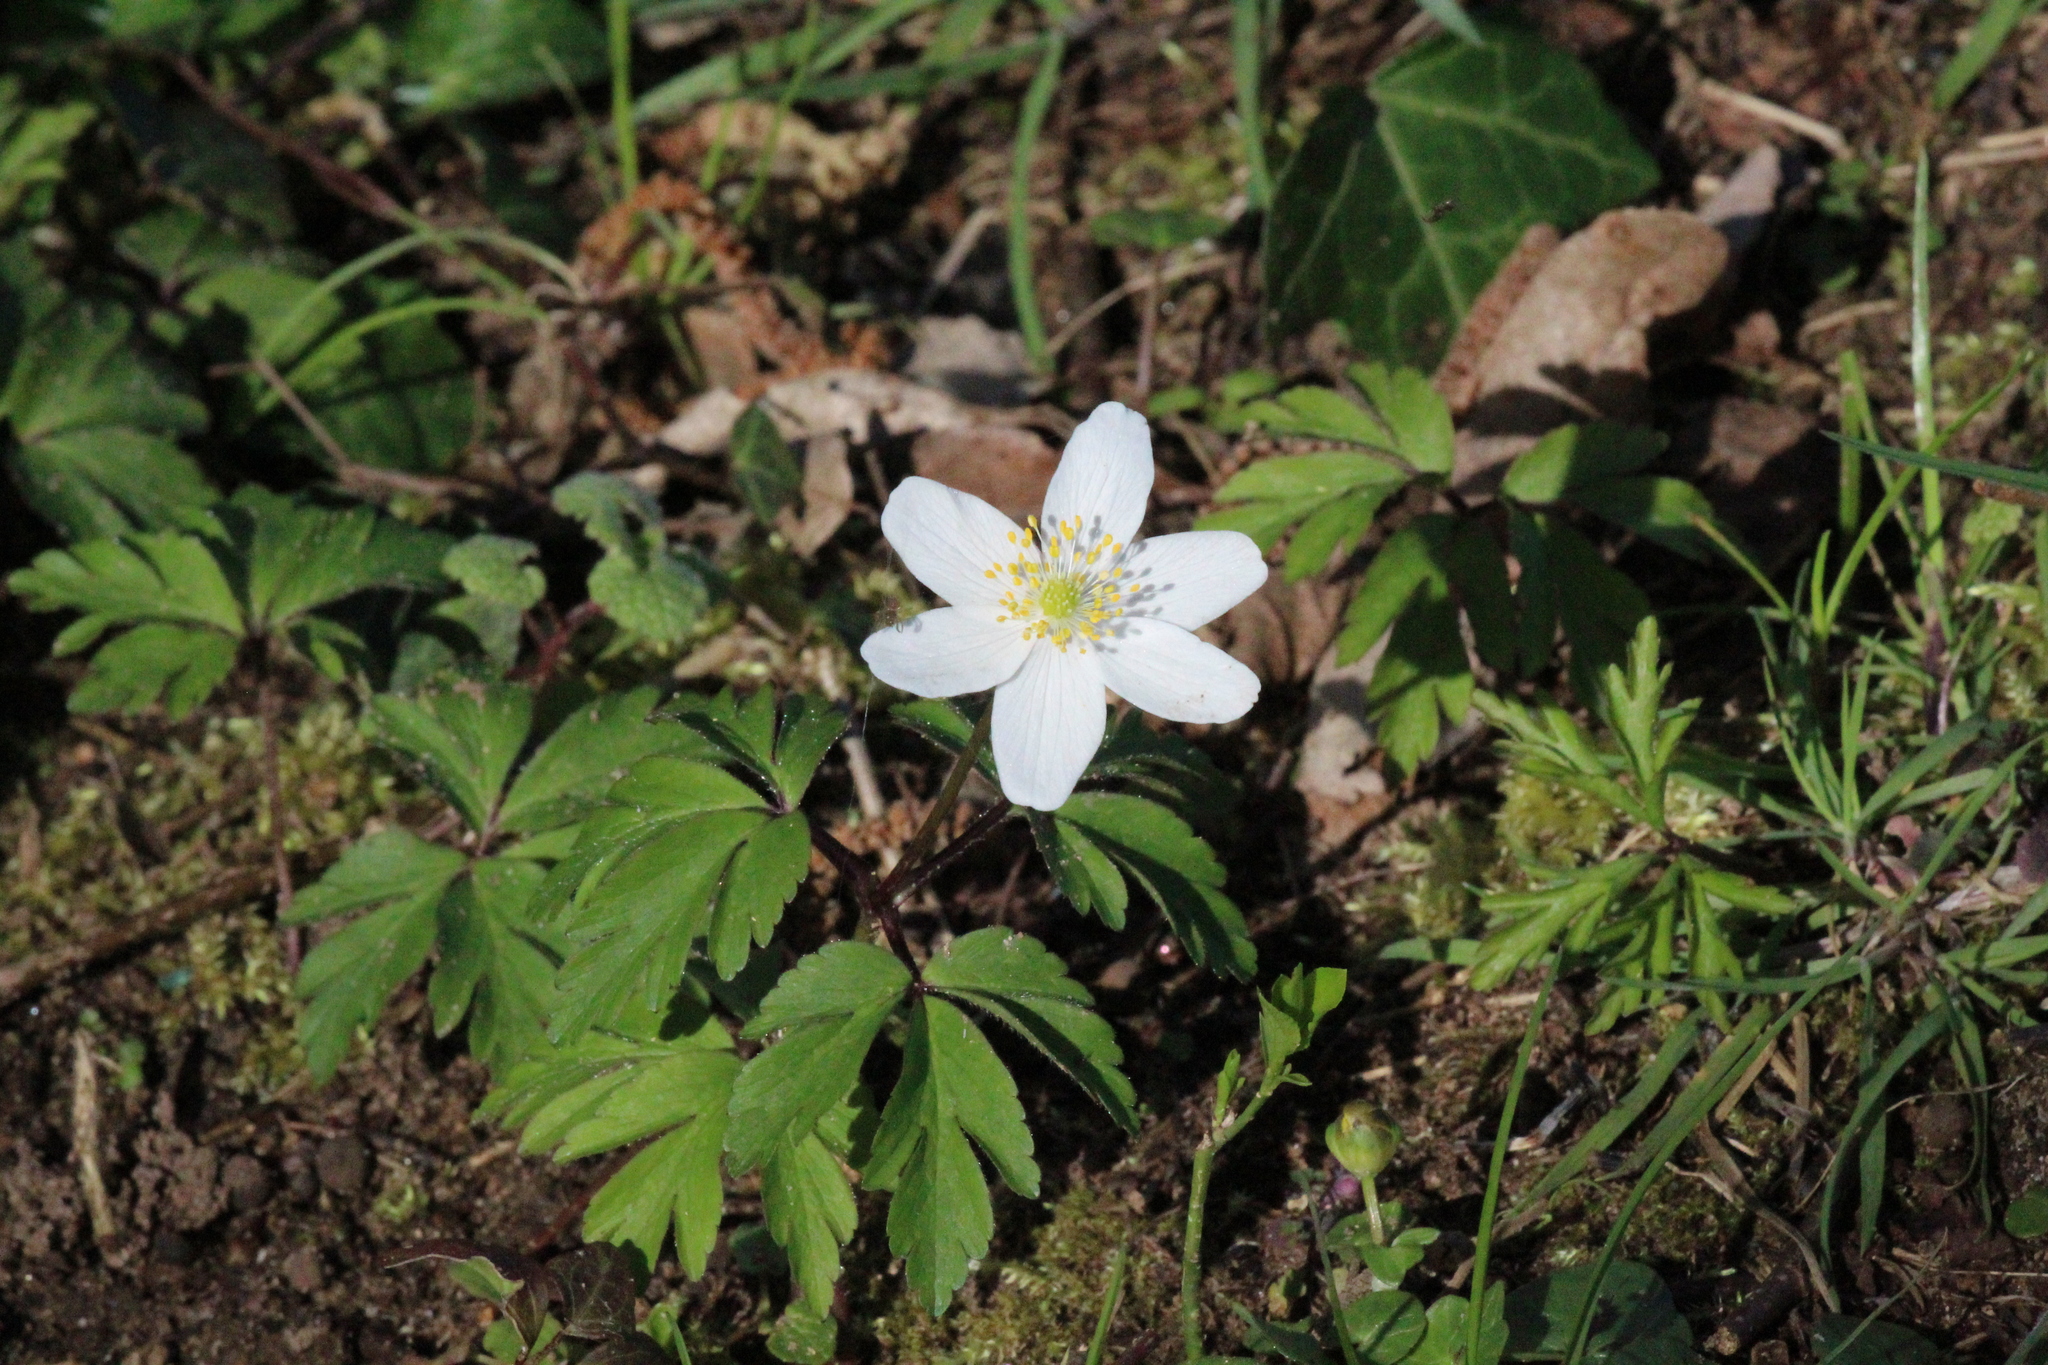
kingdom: Plantae
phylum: Tracheophyta
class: Magnoliopsida
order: Ranunculales
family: Ranunculaceae
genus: Anemone
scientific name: Anemone nemorosa
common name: Wood anemone
